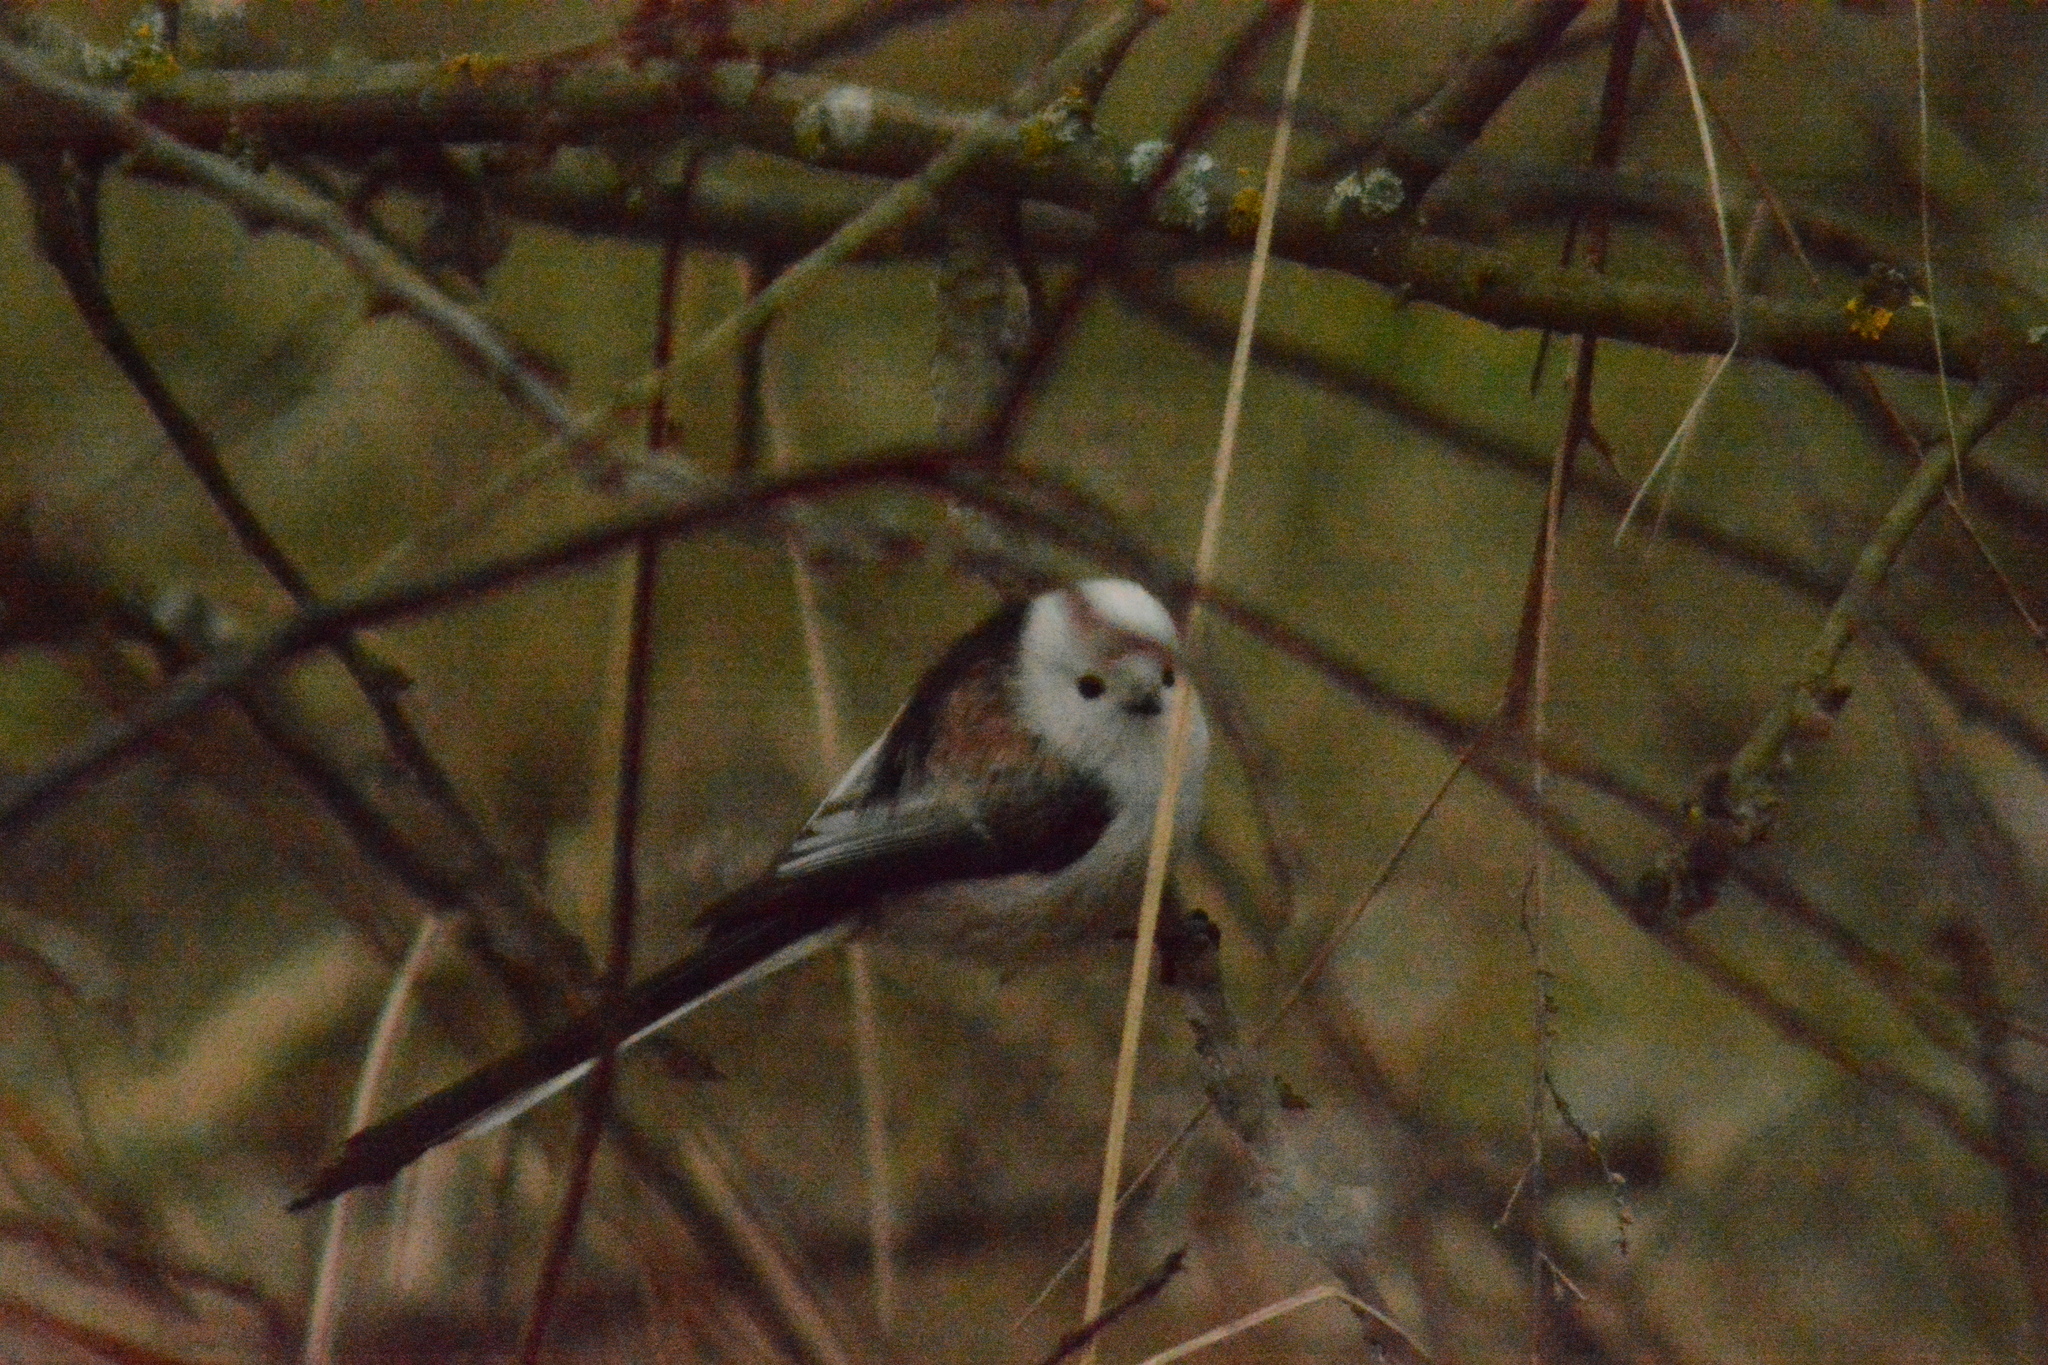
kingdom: Animalia
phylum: Chordata
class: Aves
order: Passeriformes
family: Aegithalidae
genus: Aegithalos
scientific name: Aegithalos caudatus
